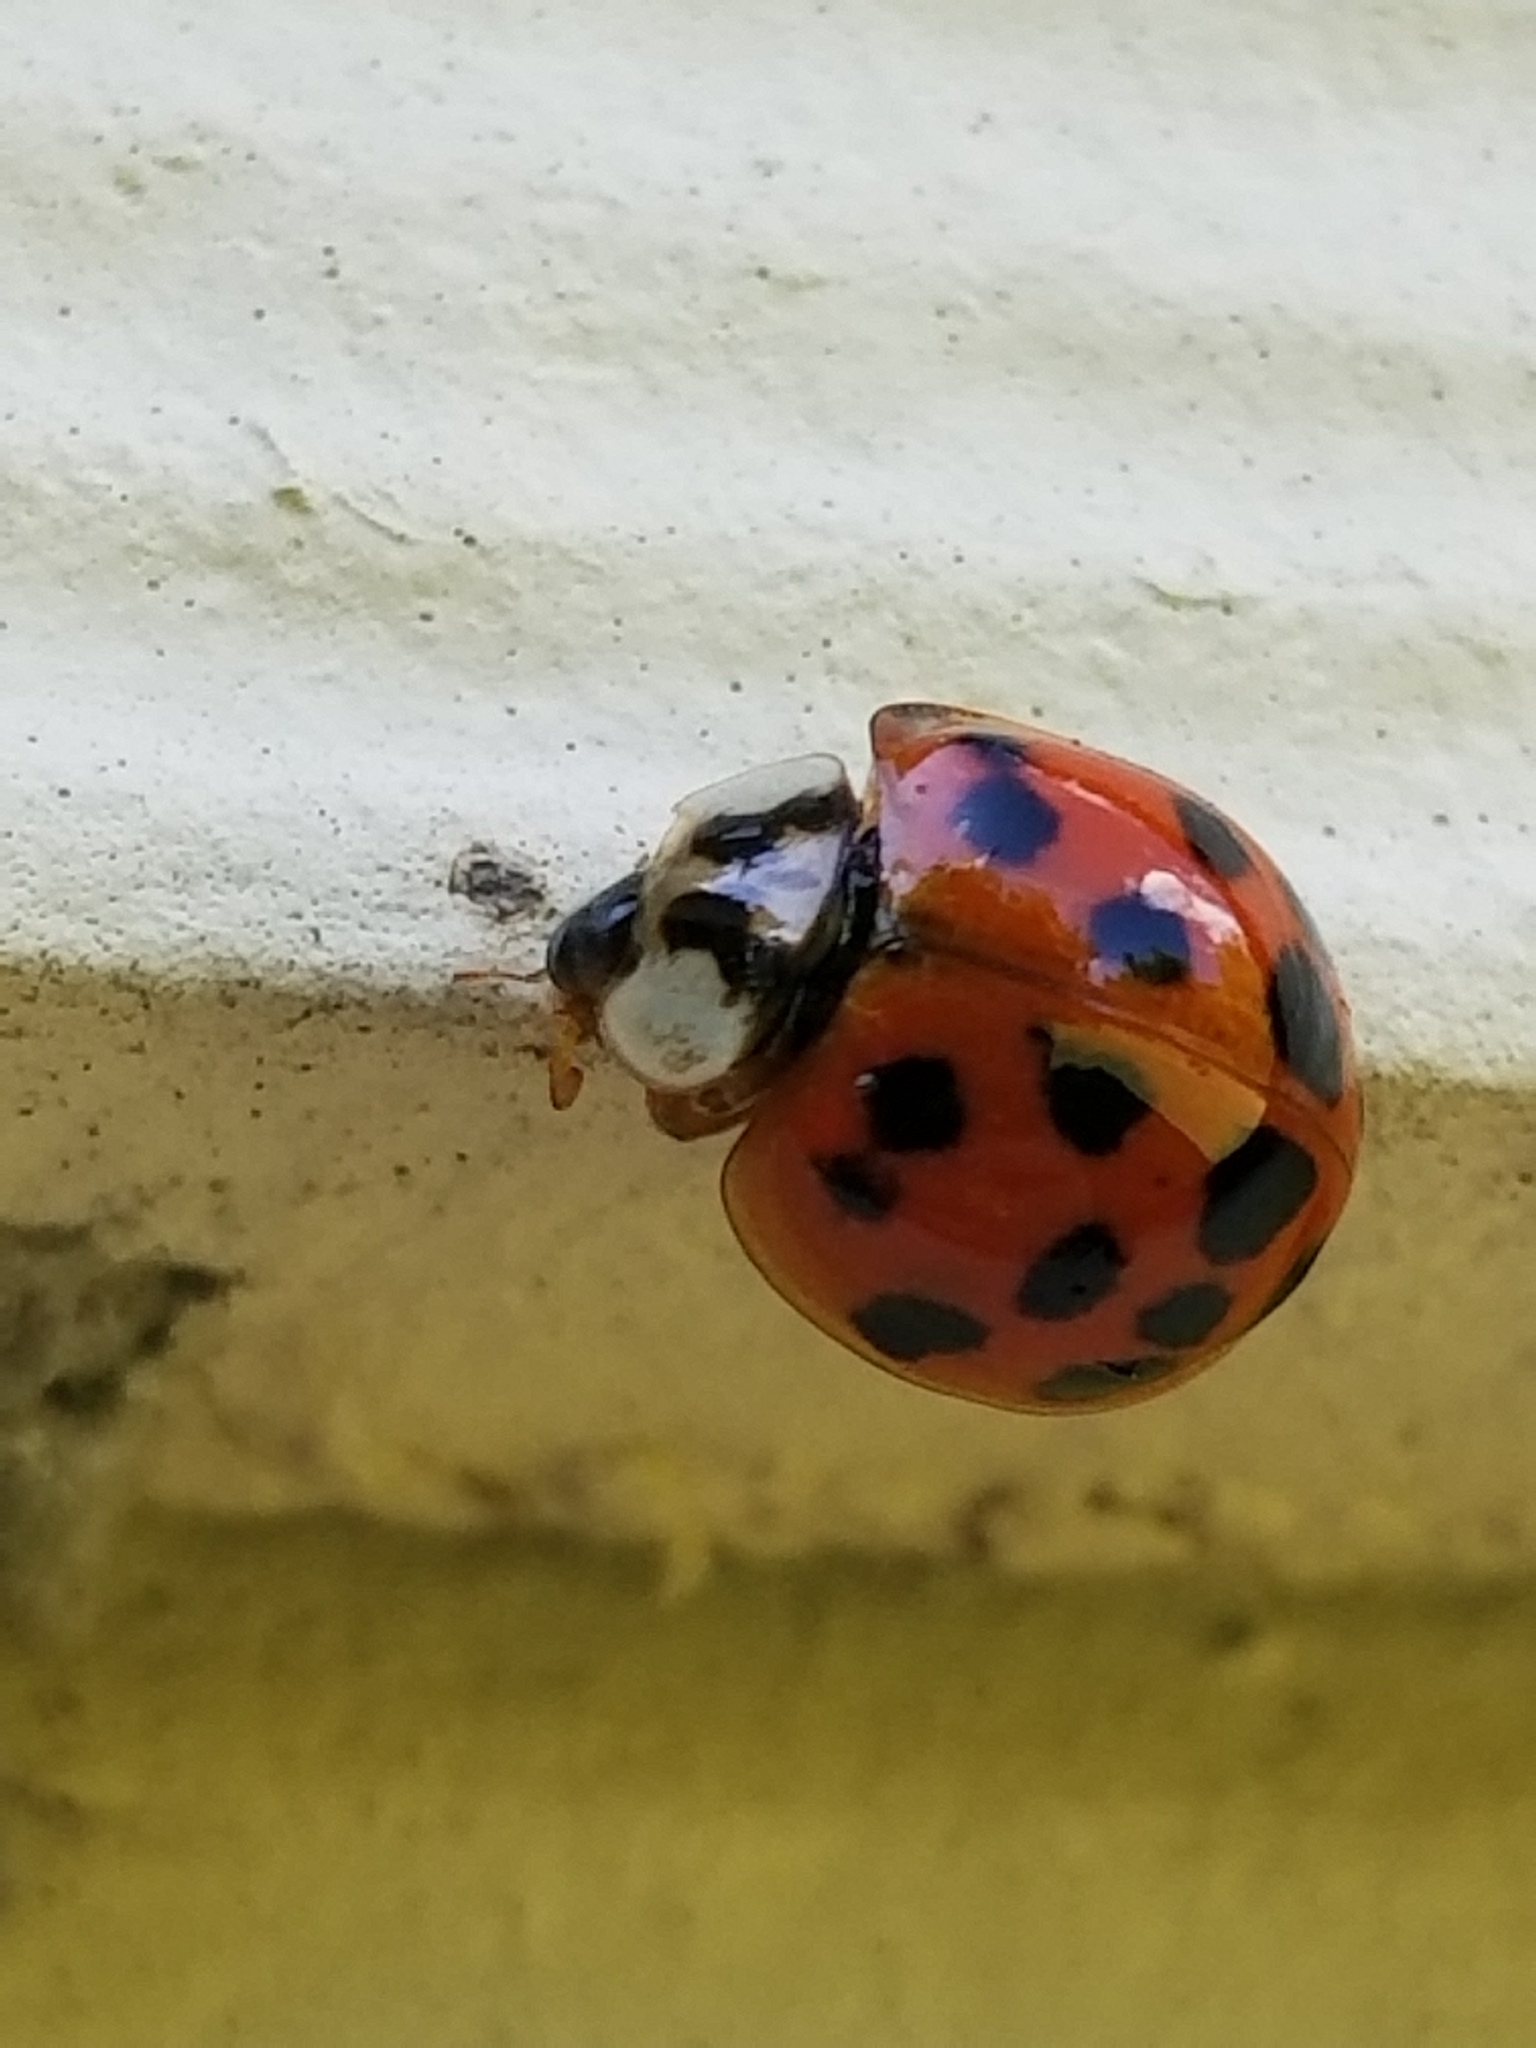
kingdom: Animalia
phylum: Arthropoda
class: Insecta
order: Coleoptera
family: Coccinellidae
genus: Harmonia
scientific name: Harmonia axyridis
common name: Harlequin ladybird
